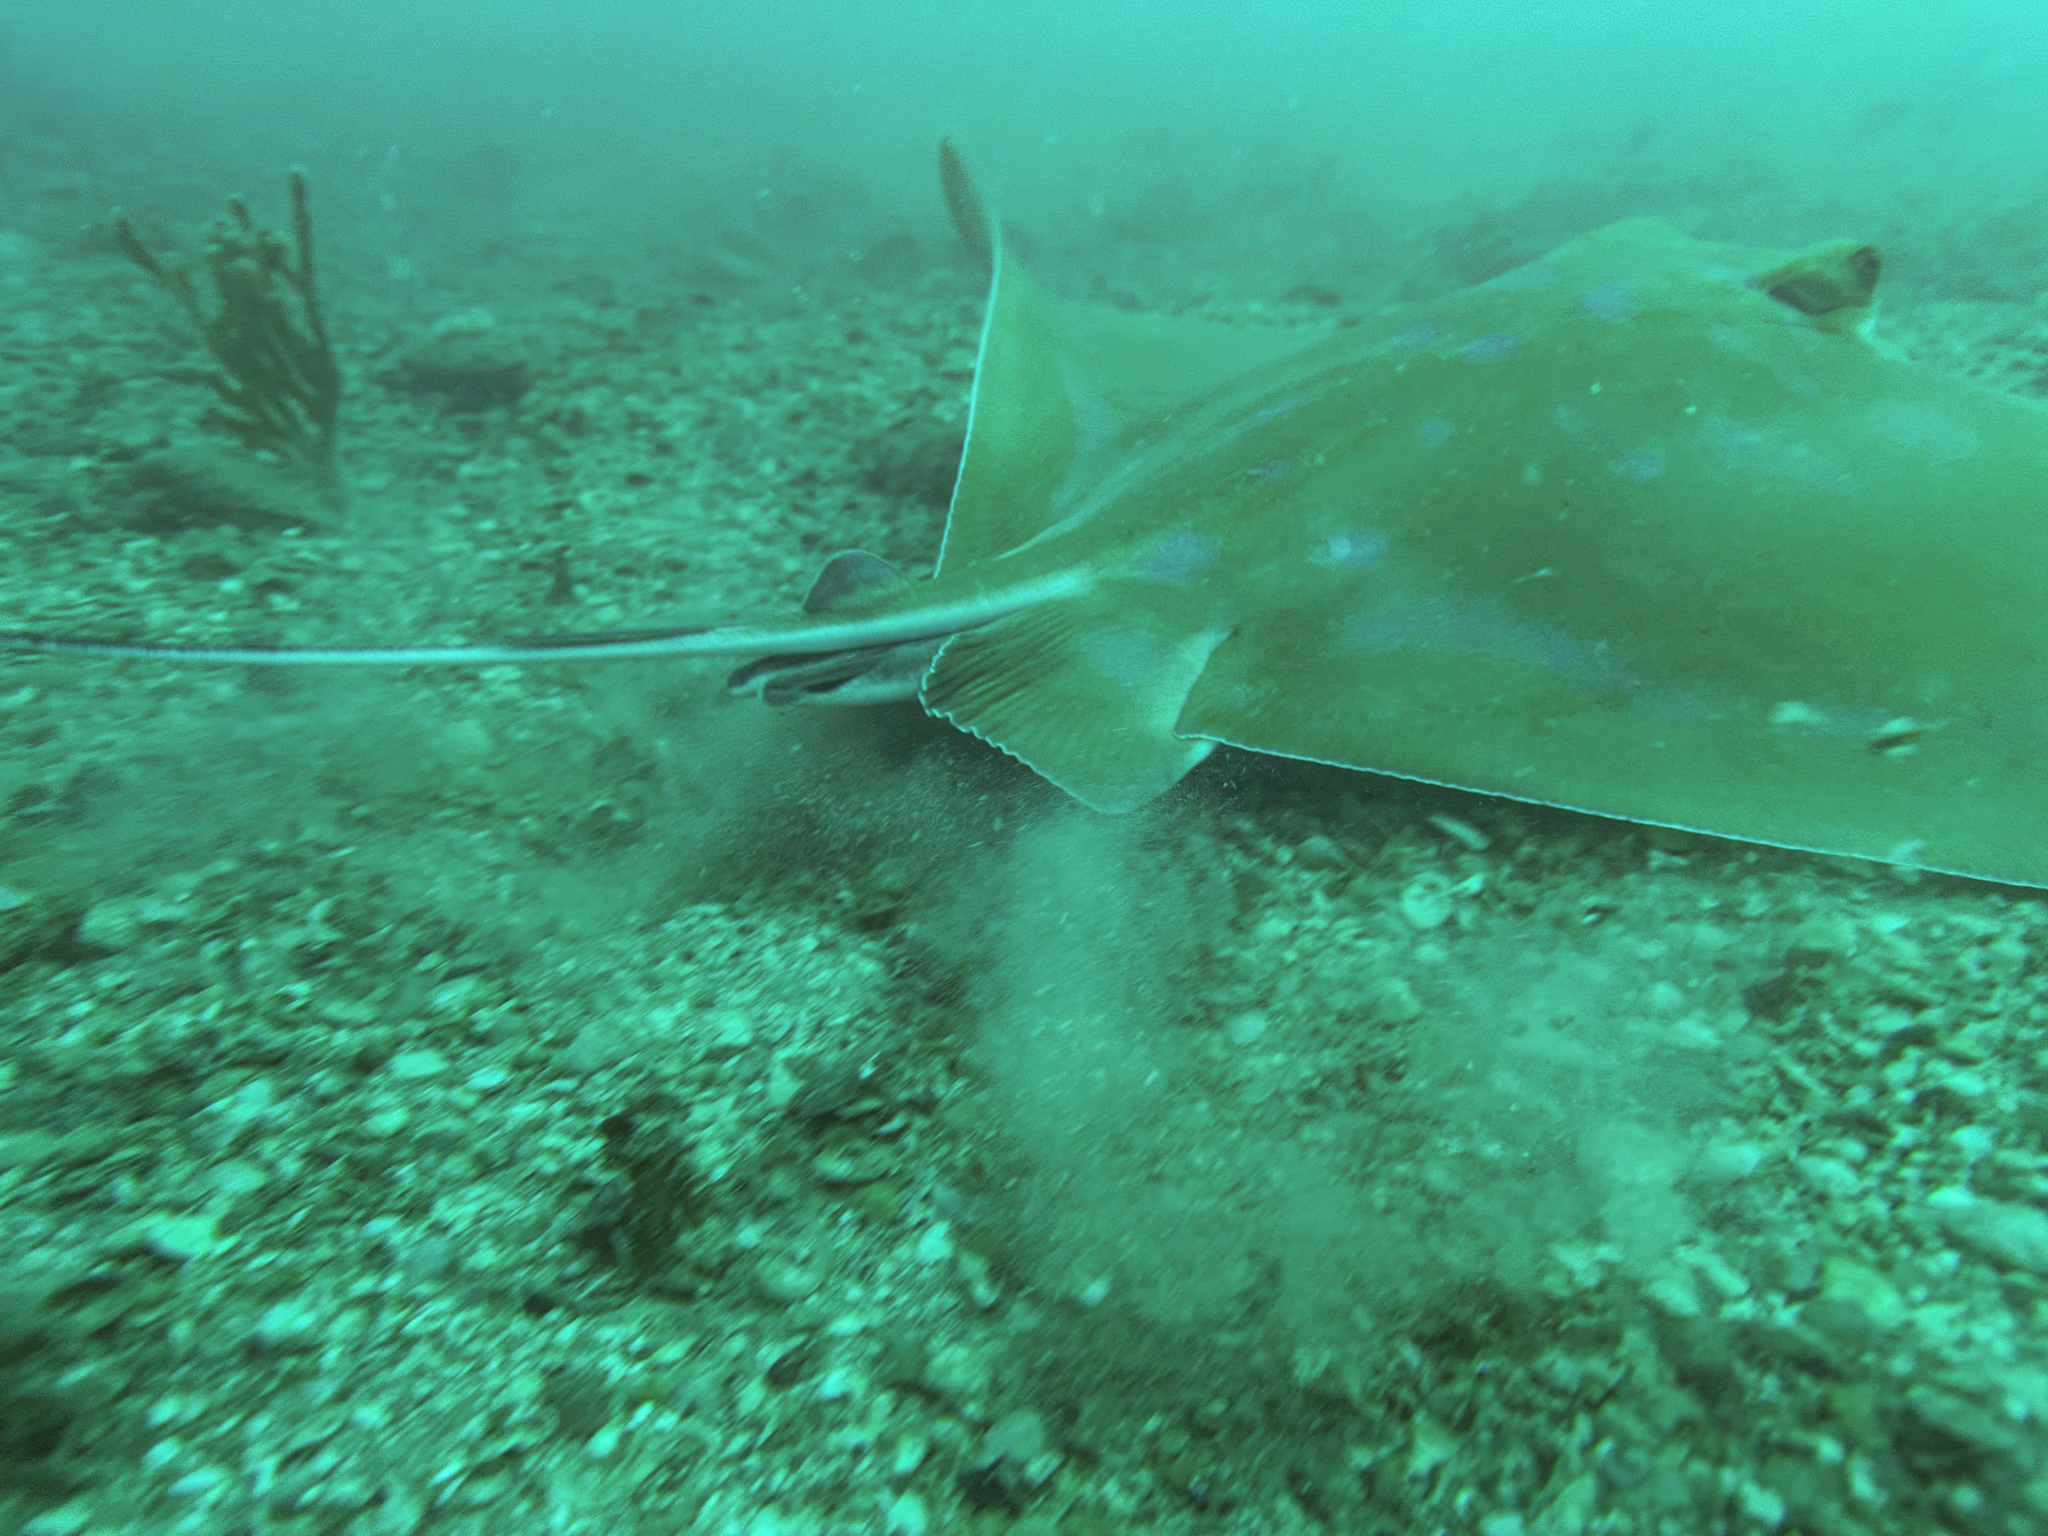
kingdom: Animalia
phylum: Chordata
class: Elasmobranchii
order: Myliobatiformes
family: Myliobatidae
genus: Myliobatis
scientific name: Myliobatis tenuicaudatus
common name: Eagle ray
